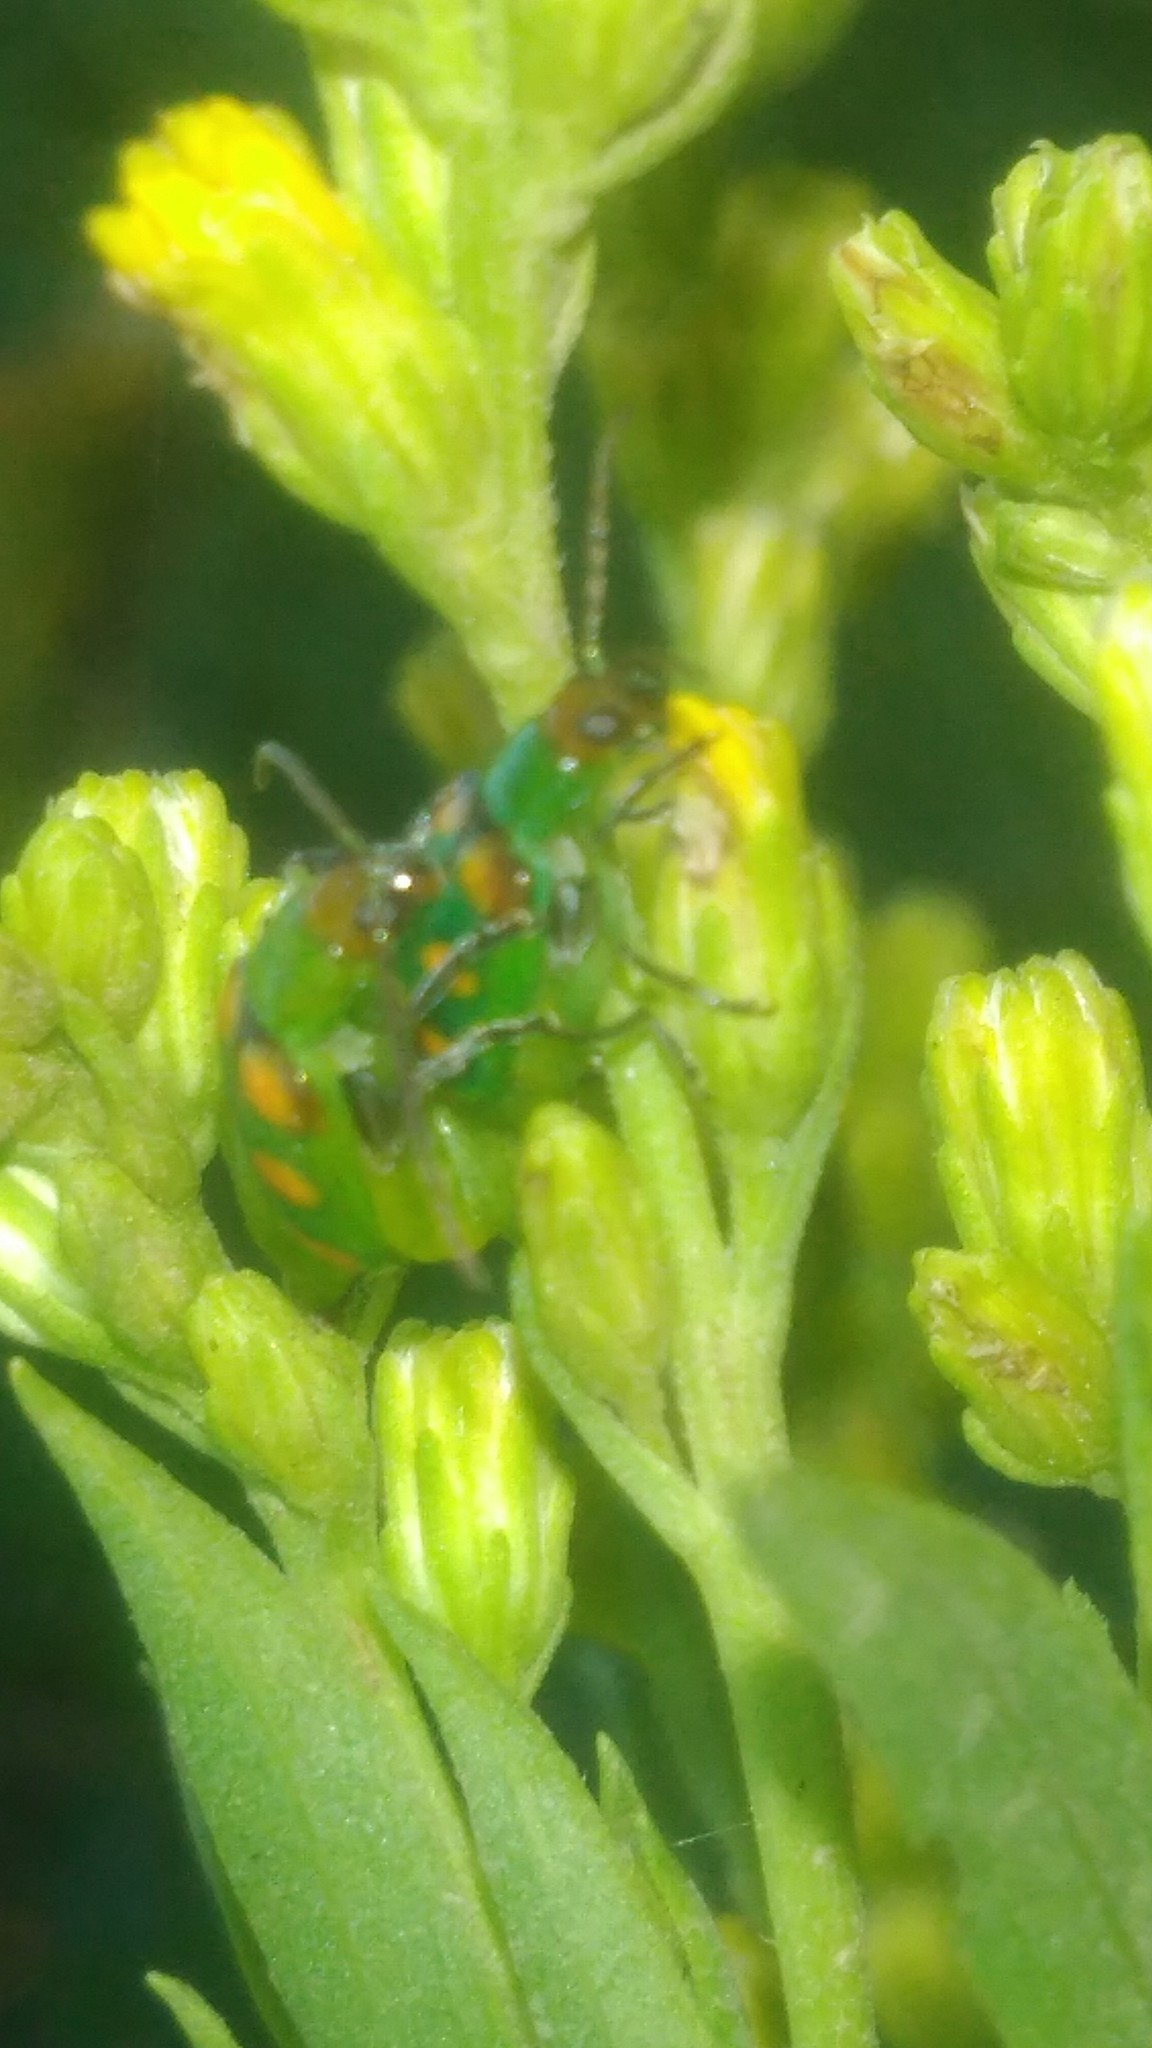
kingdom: Animalia
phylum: Arthropoda
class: Insecta
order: Coleoptera
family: Chrysomelidae
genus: Diabrotica
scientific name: Diabrotica speciosa
